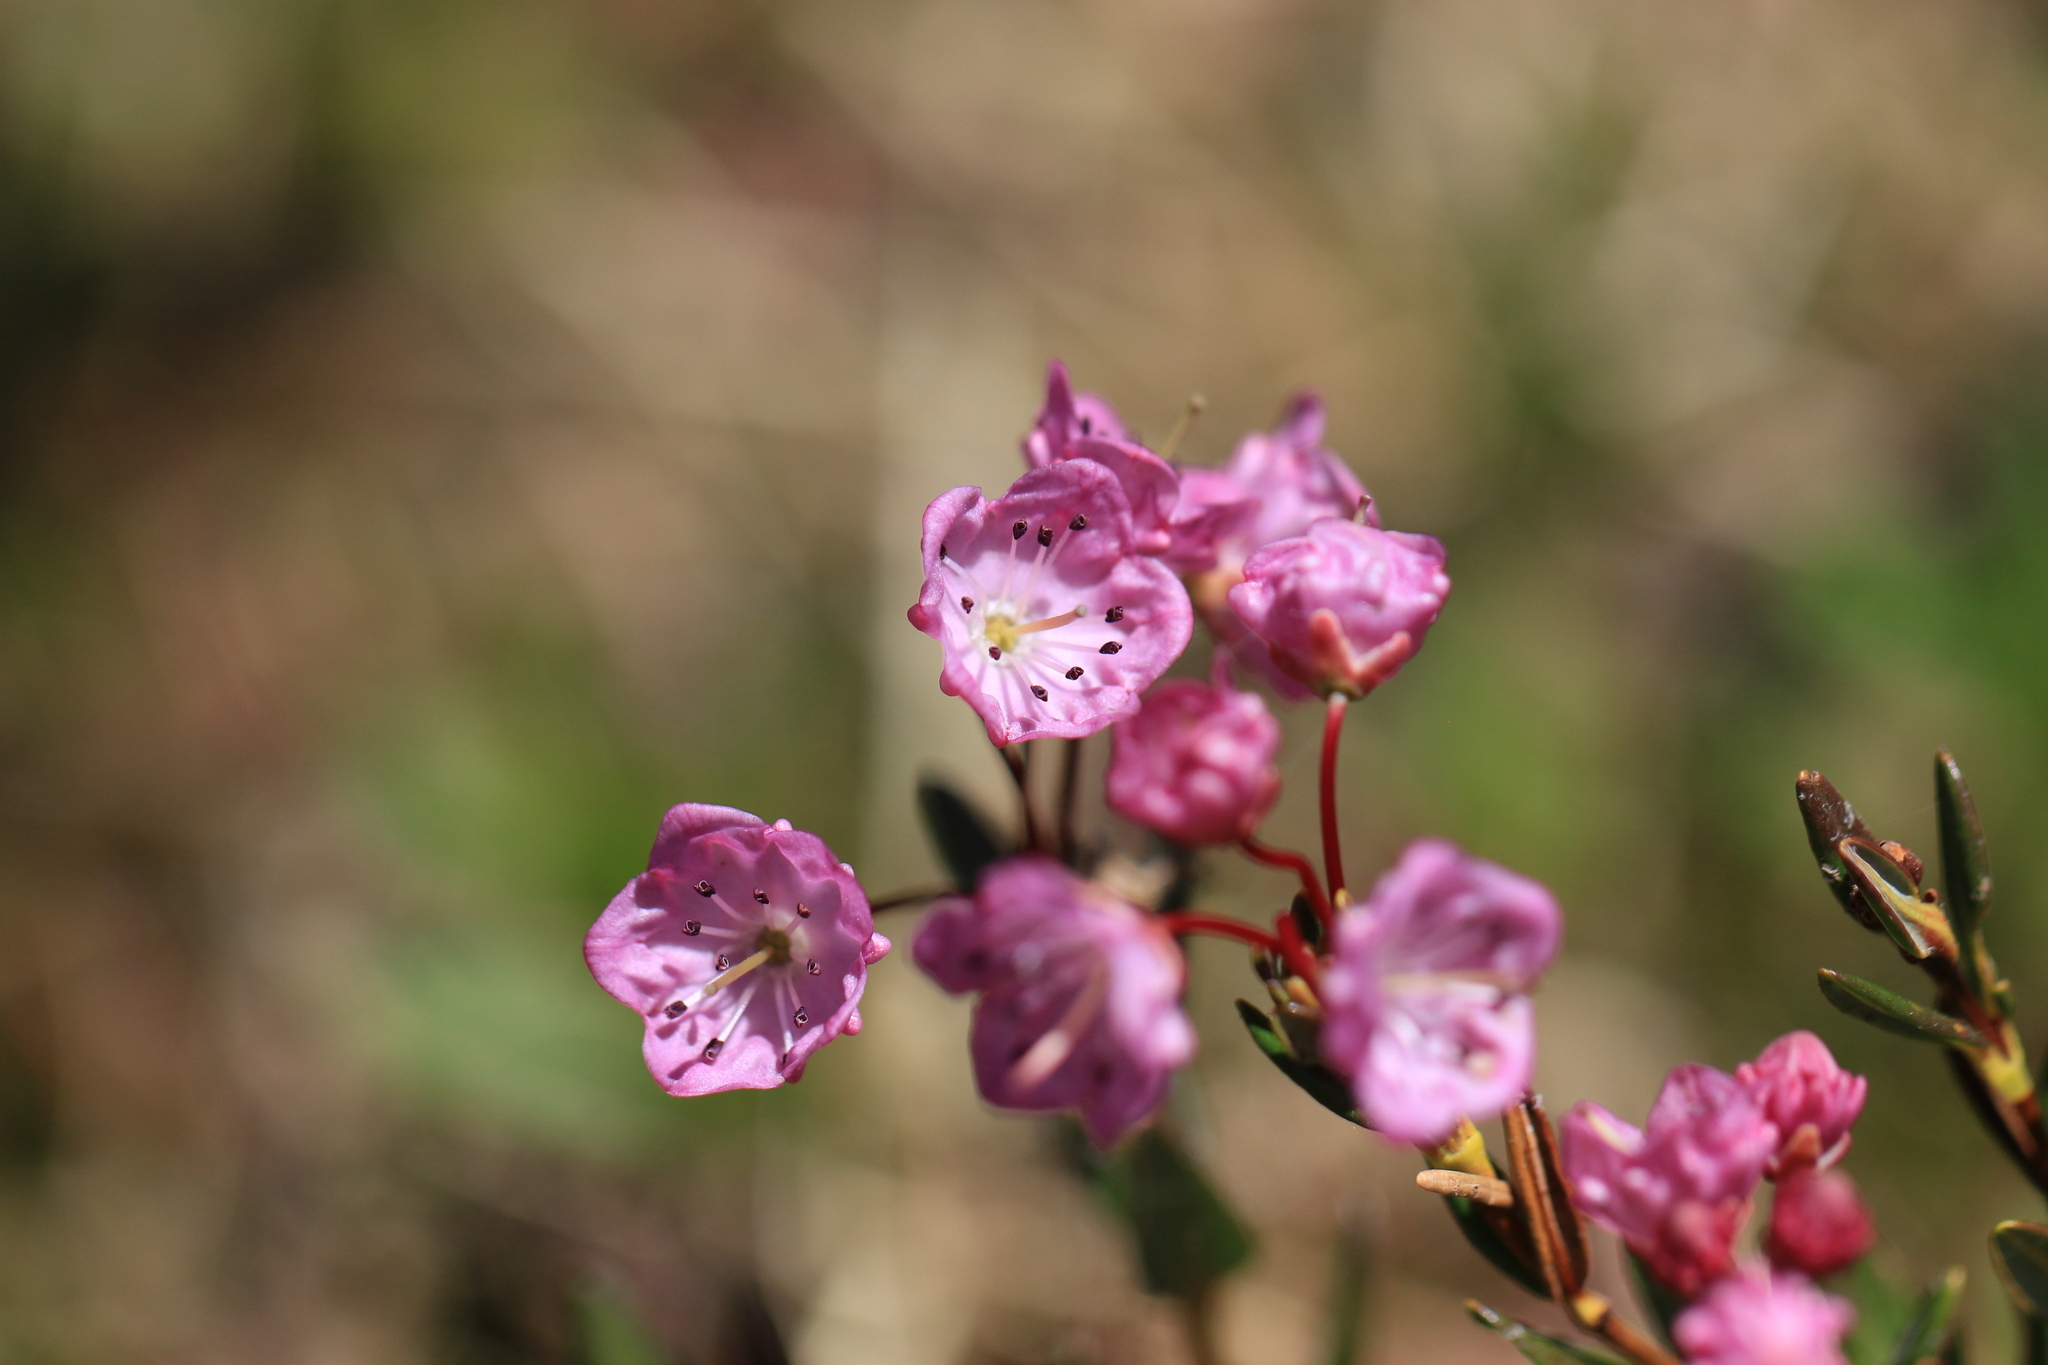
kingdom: Plantae
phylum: Tracheophyta
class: Magnoliopsida
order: Ericales
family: Ericaceae
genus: Kalmia
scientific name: Kalmia microphylla
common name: Alpine bog laurel
